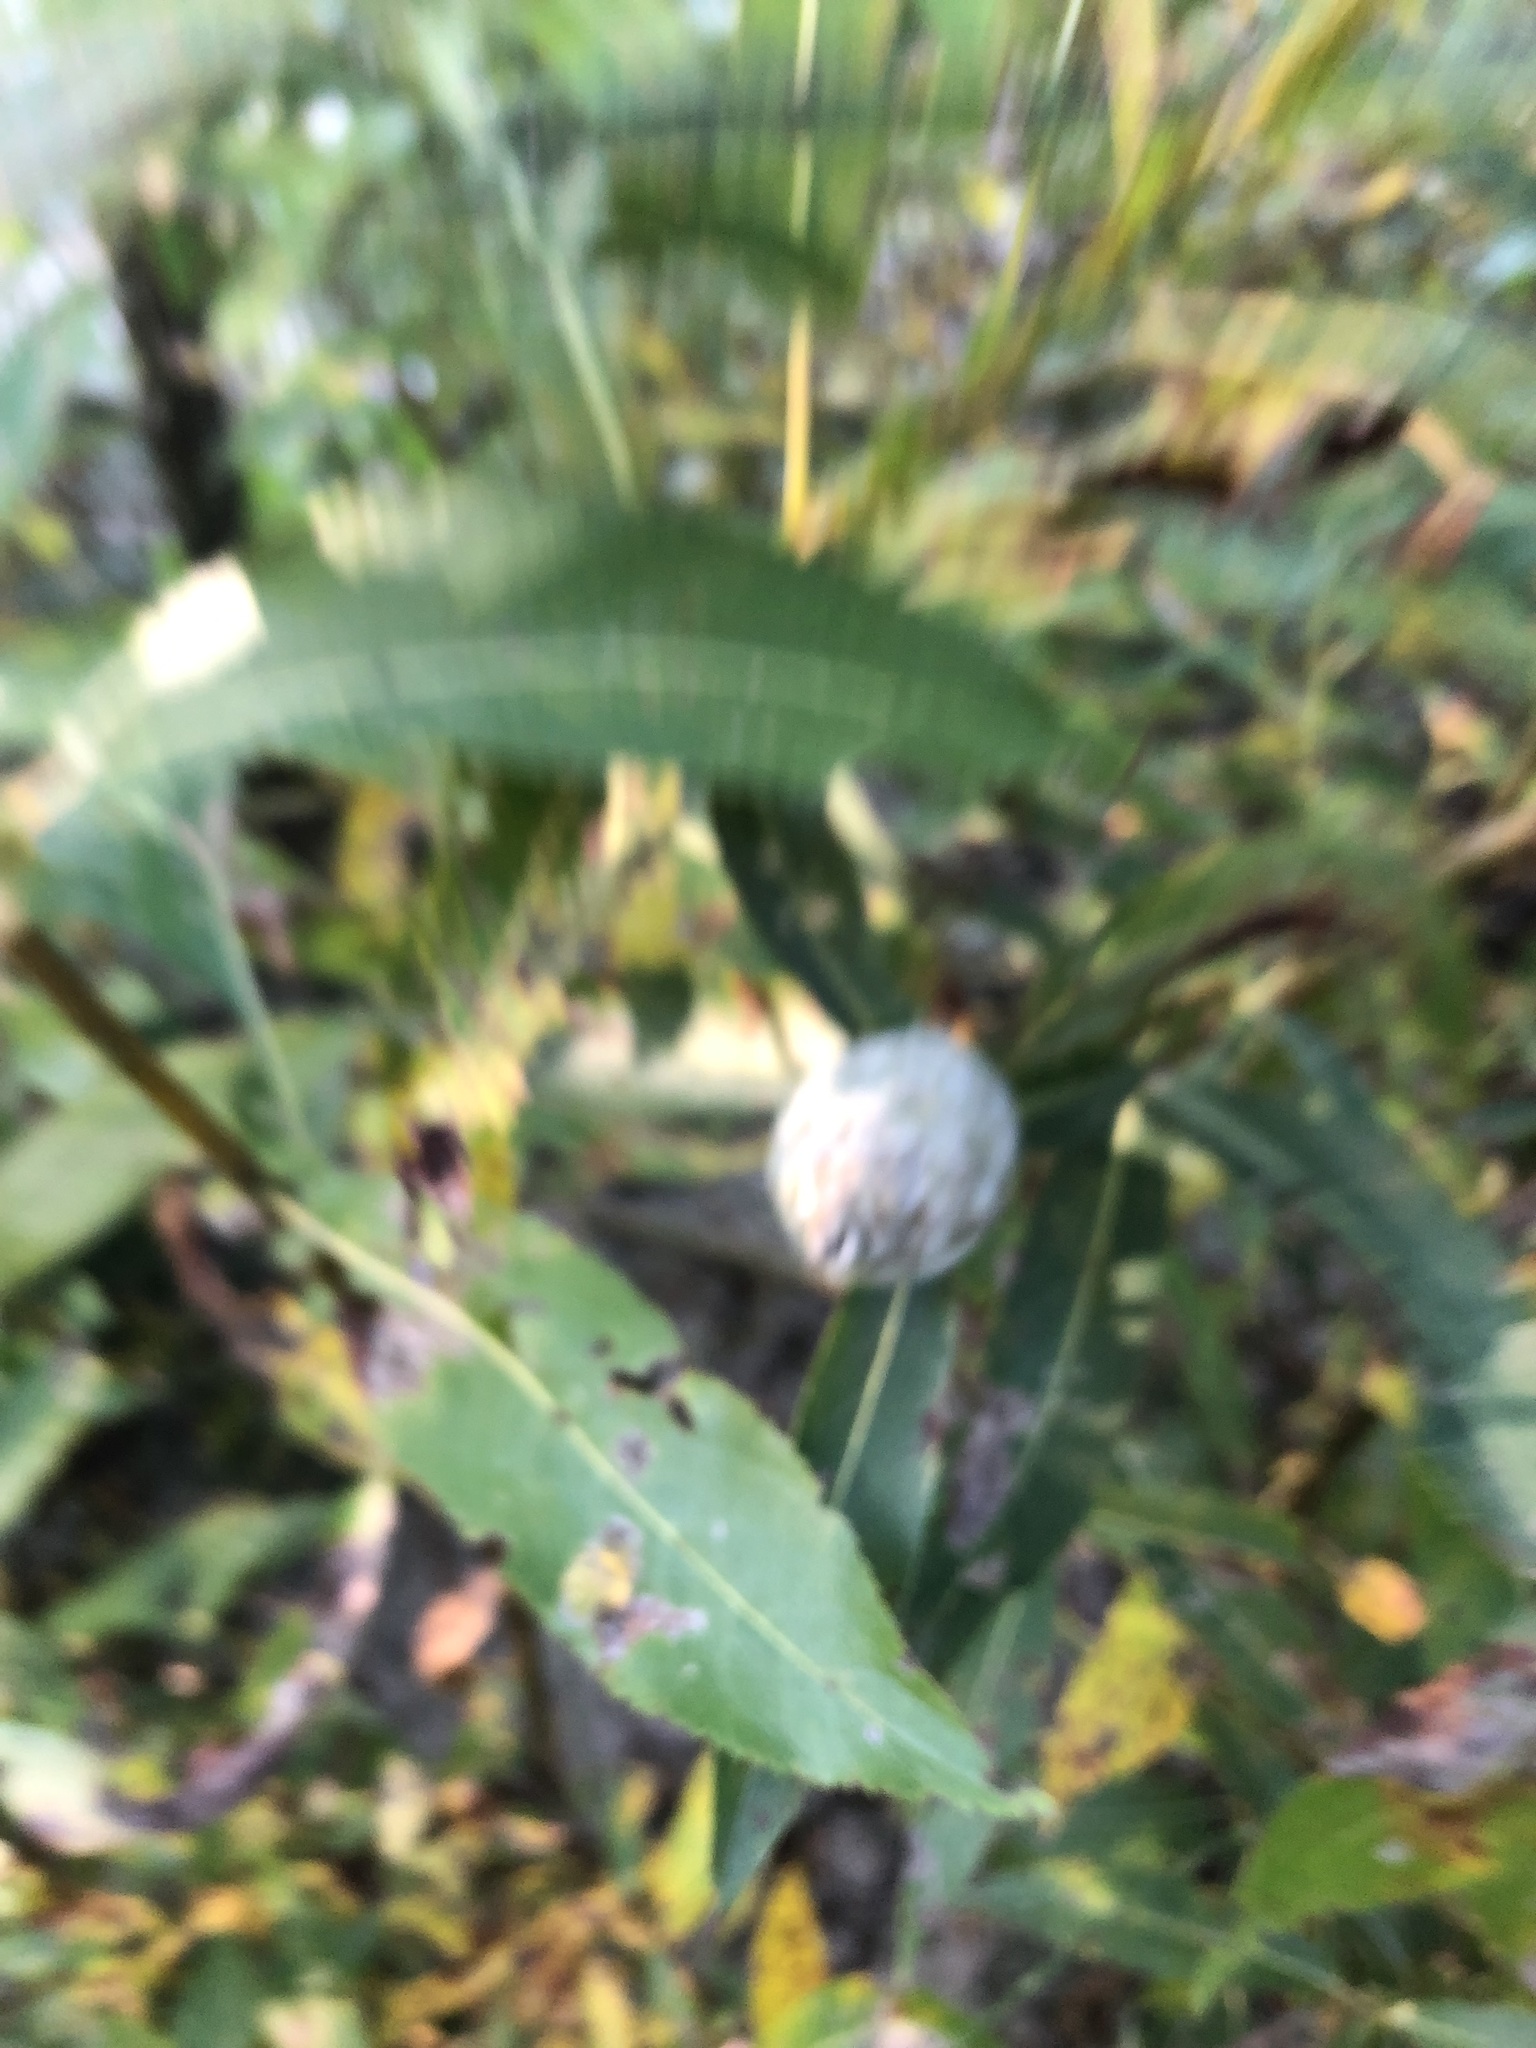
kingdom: Animalia
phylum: Arthropoda
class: Insecta
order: Diptera
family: Cecidomyiidae
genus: Rabdophaga
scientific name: Rabdophaga strobiloides
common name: Willow pinecone gall midge
